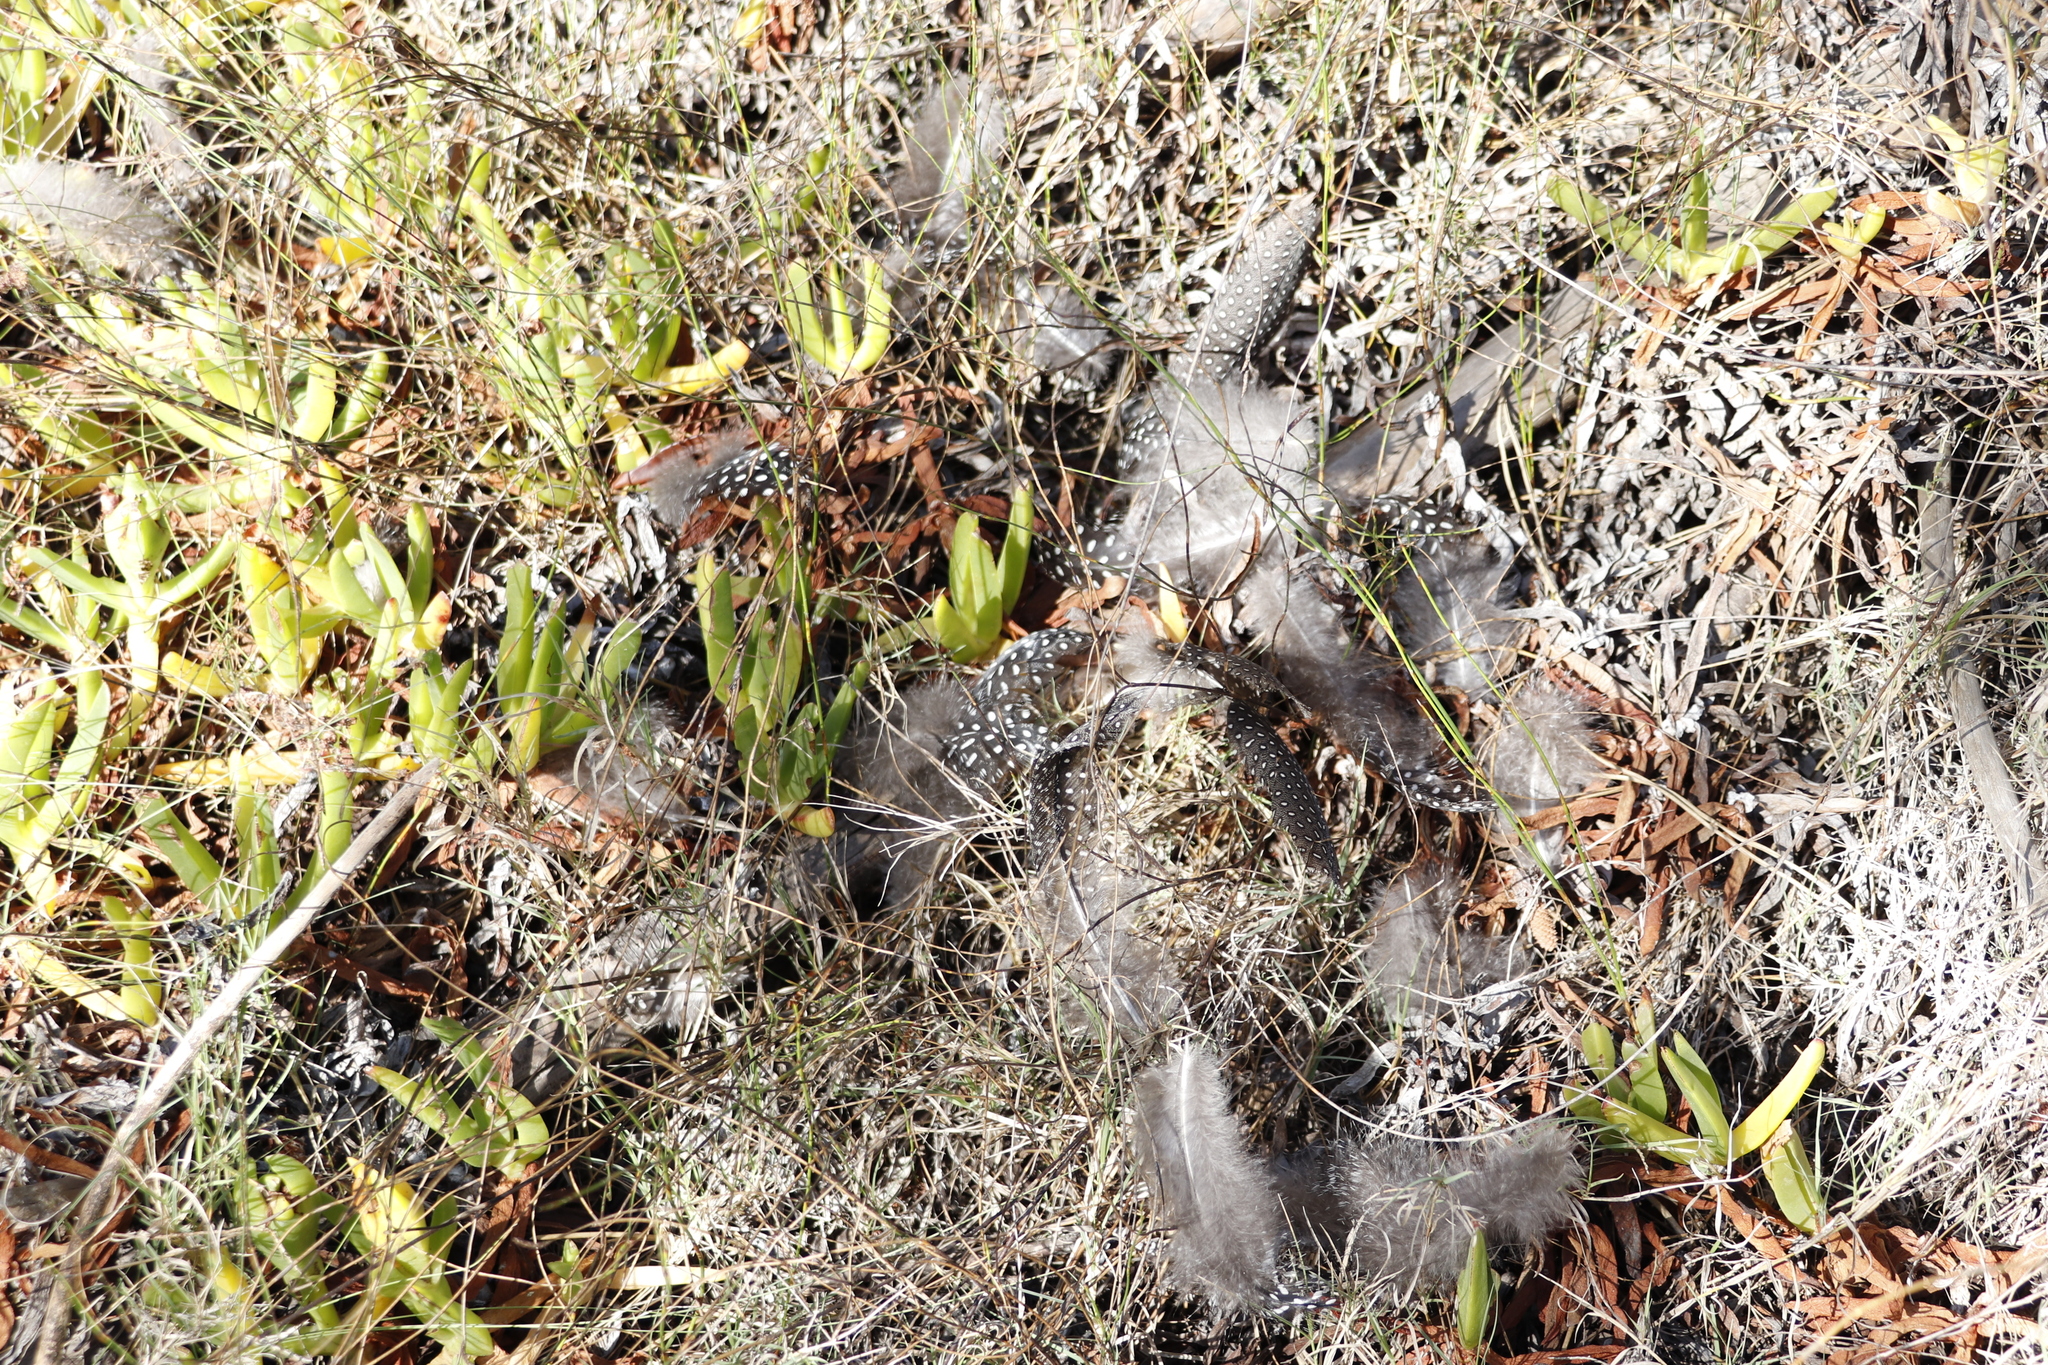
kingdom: Animalia
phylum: Chordata
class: Aves
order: Galliformes
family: Numididae
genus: Numida
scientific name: Numida meleagris
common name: Helmeted guineafowl
